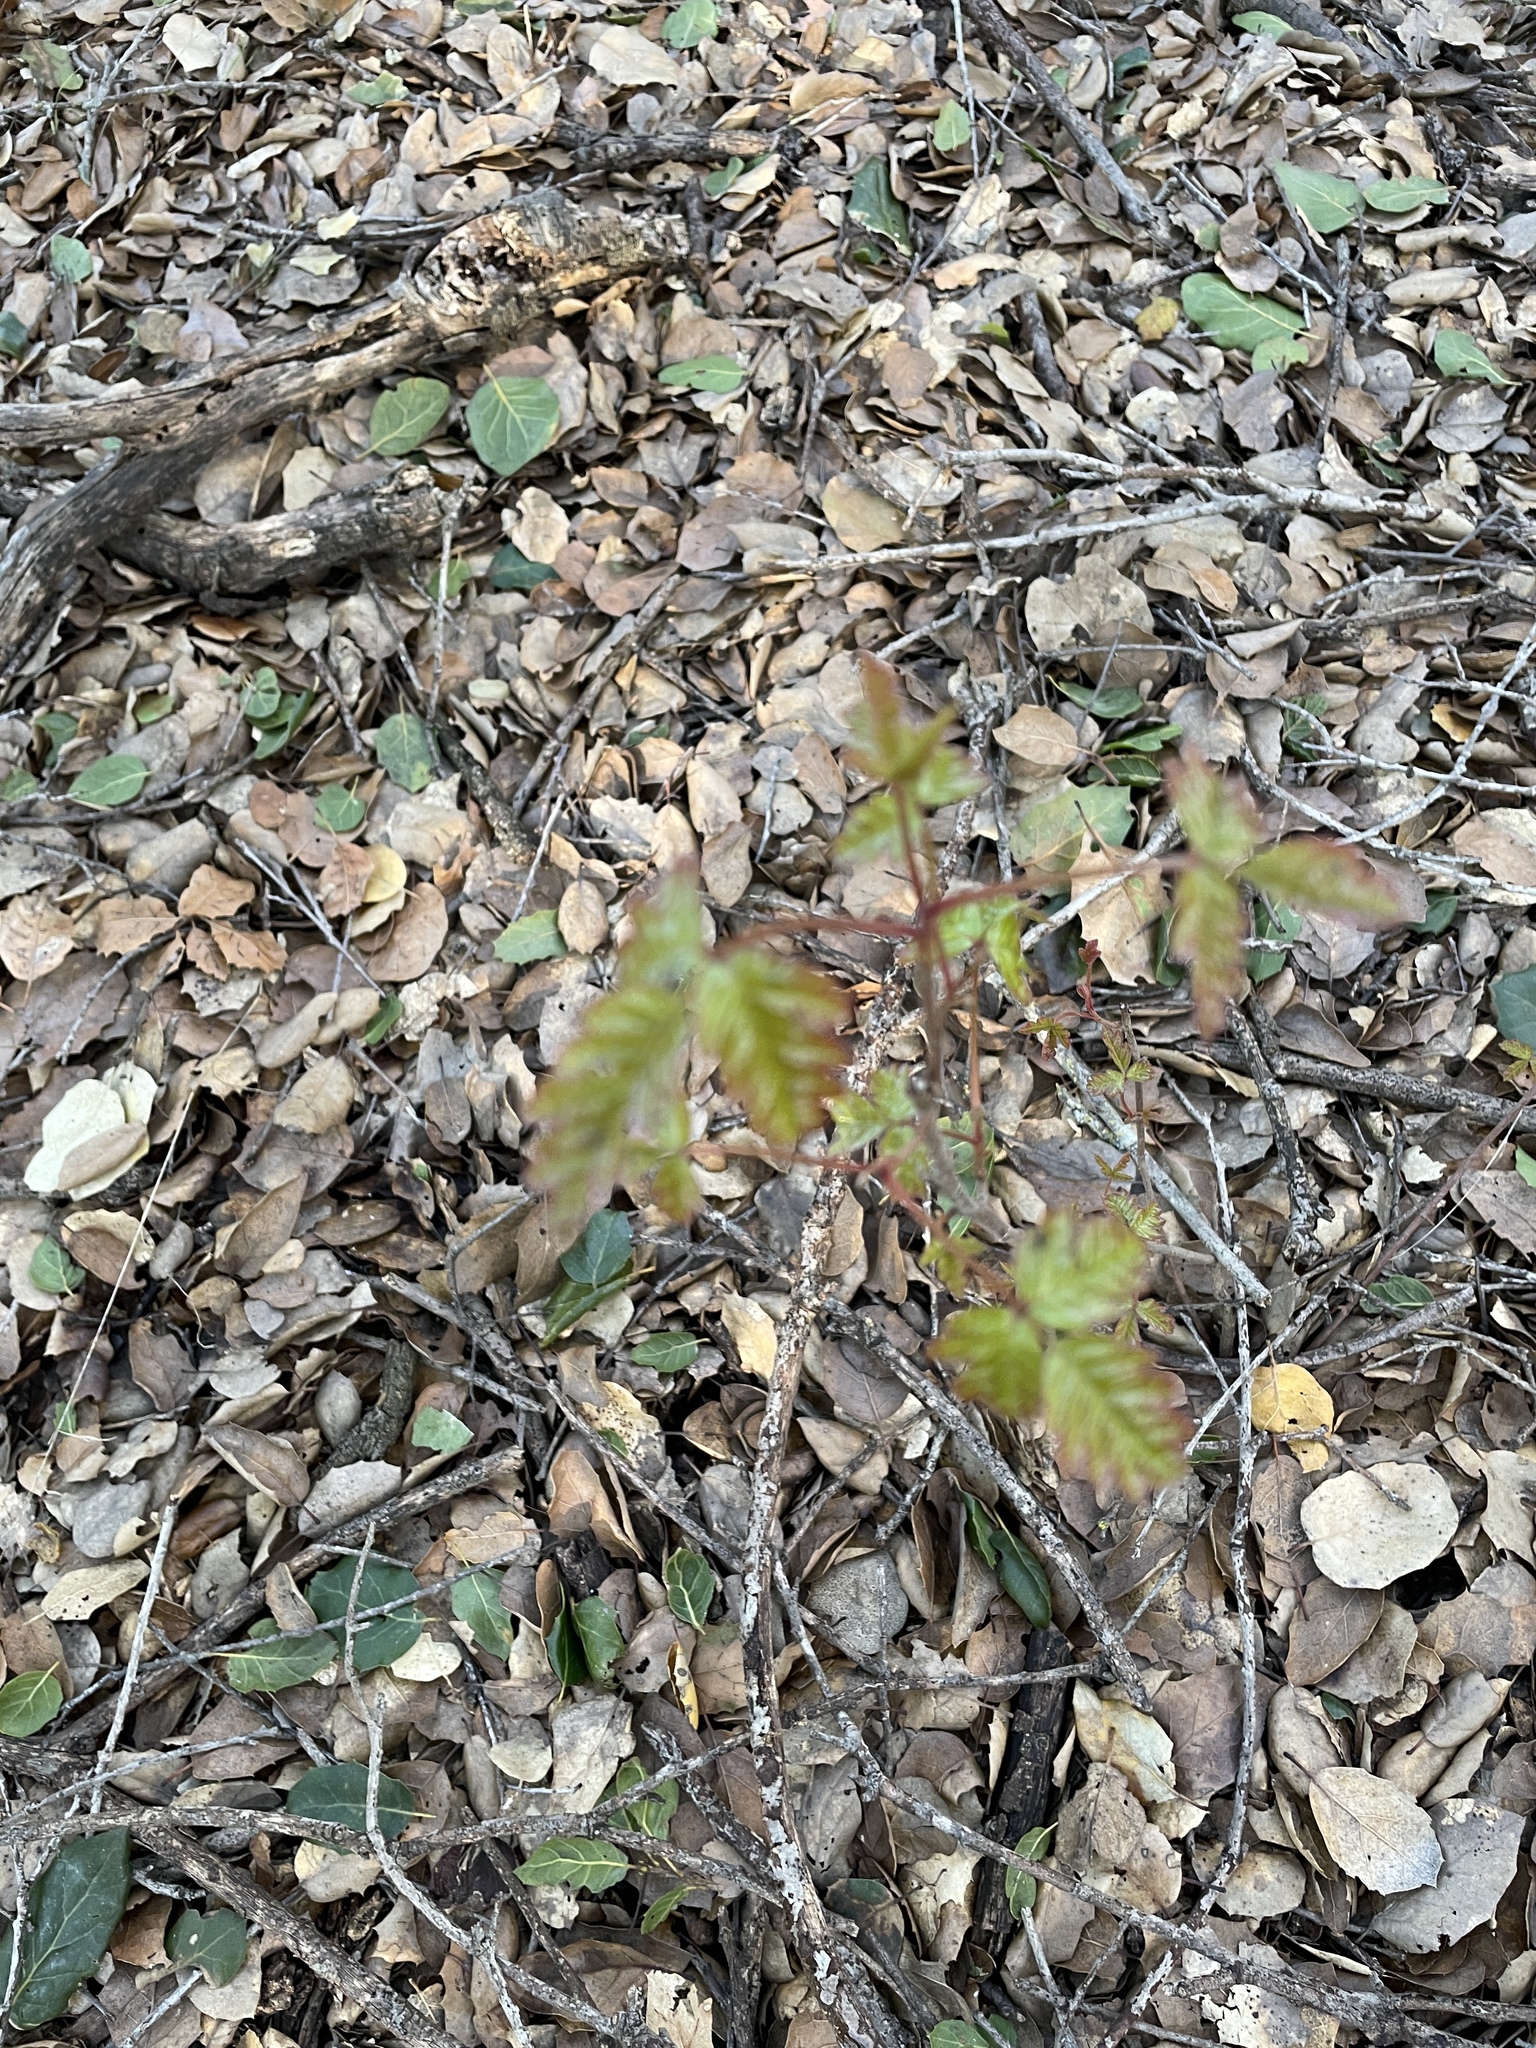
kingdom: Plantae
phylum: Tracheophyta
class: Magnoliopsida
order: Sapindales
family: Anacardiaceae
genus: Toxicodendron
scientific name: Toxicodendron diversilobum
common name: Pacific poison-oak
